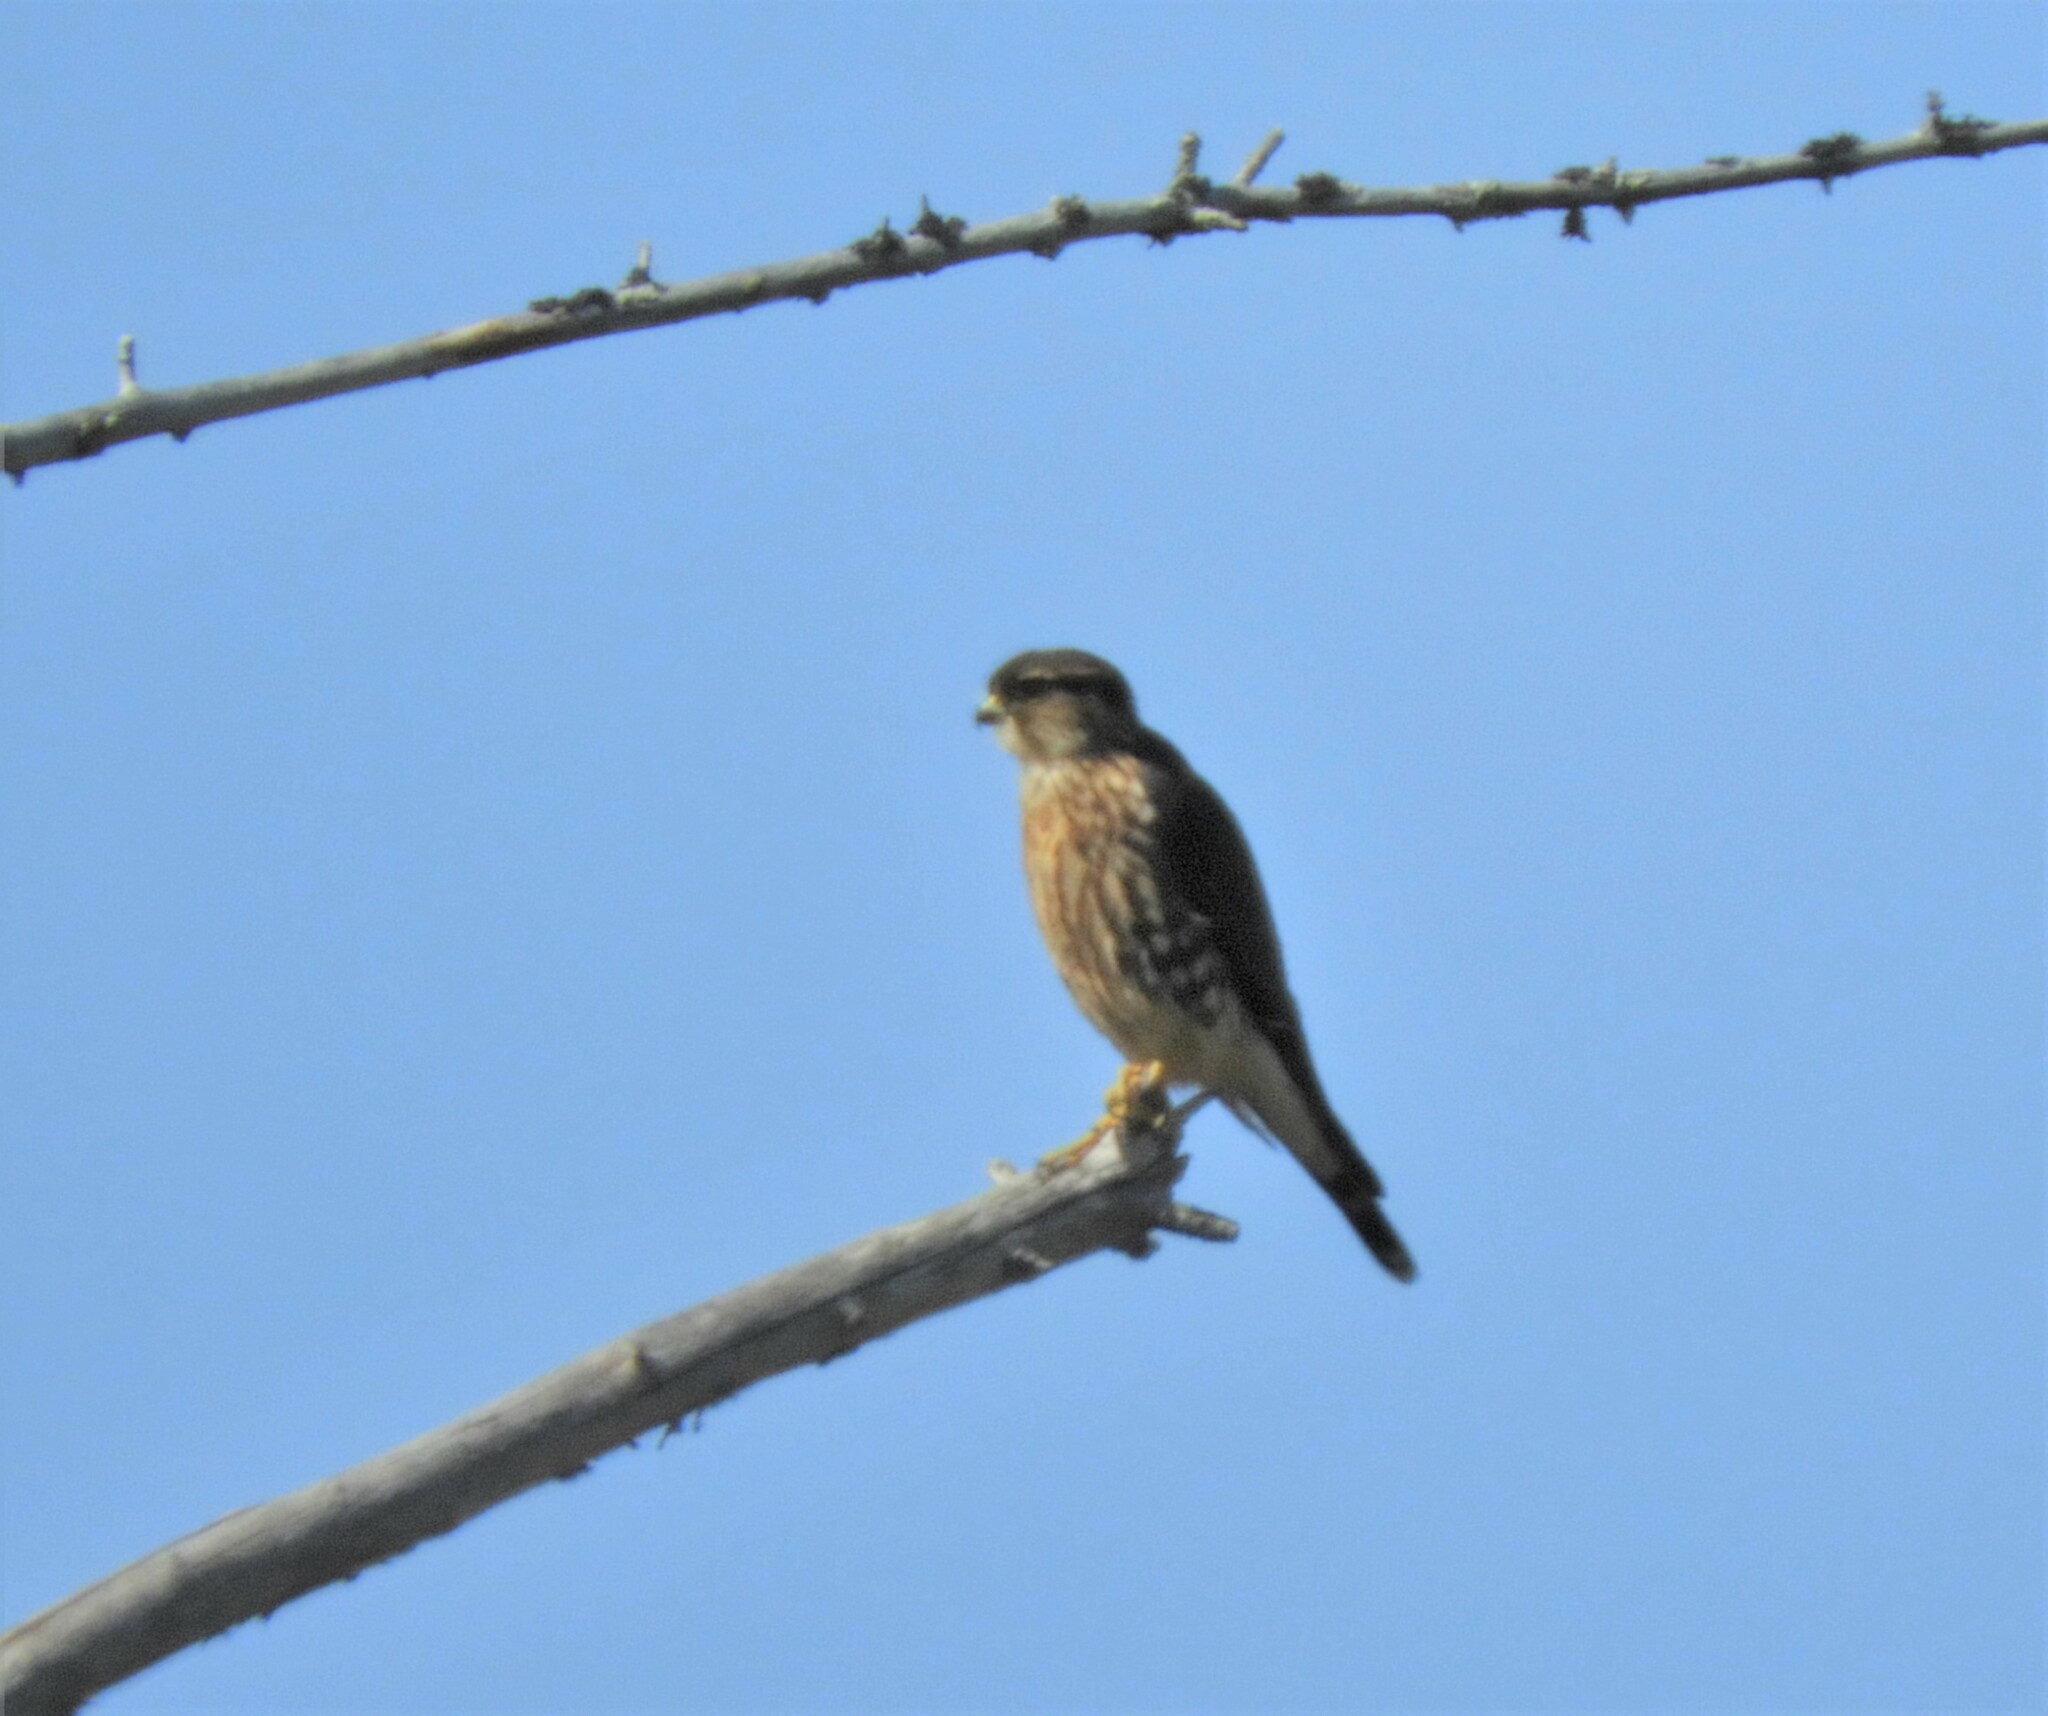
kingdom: Animalia
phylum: Chordata
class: Aves
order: Falconiformes
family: Falconidae
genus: Falco
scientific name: Falco columbarius
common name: Merlin
